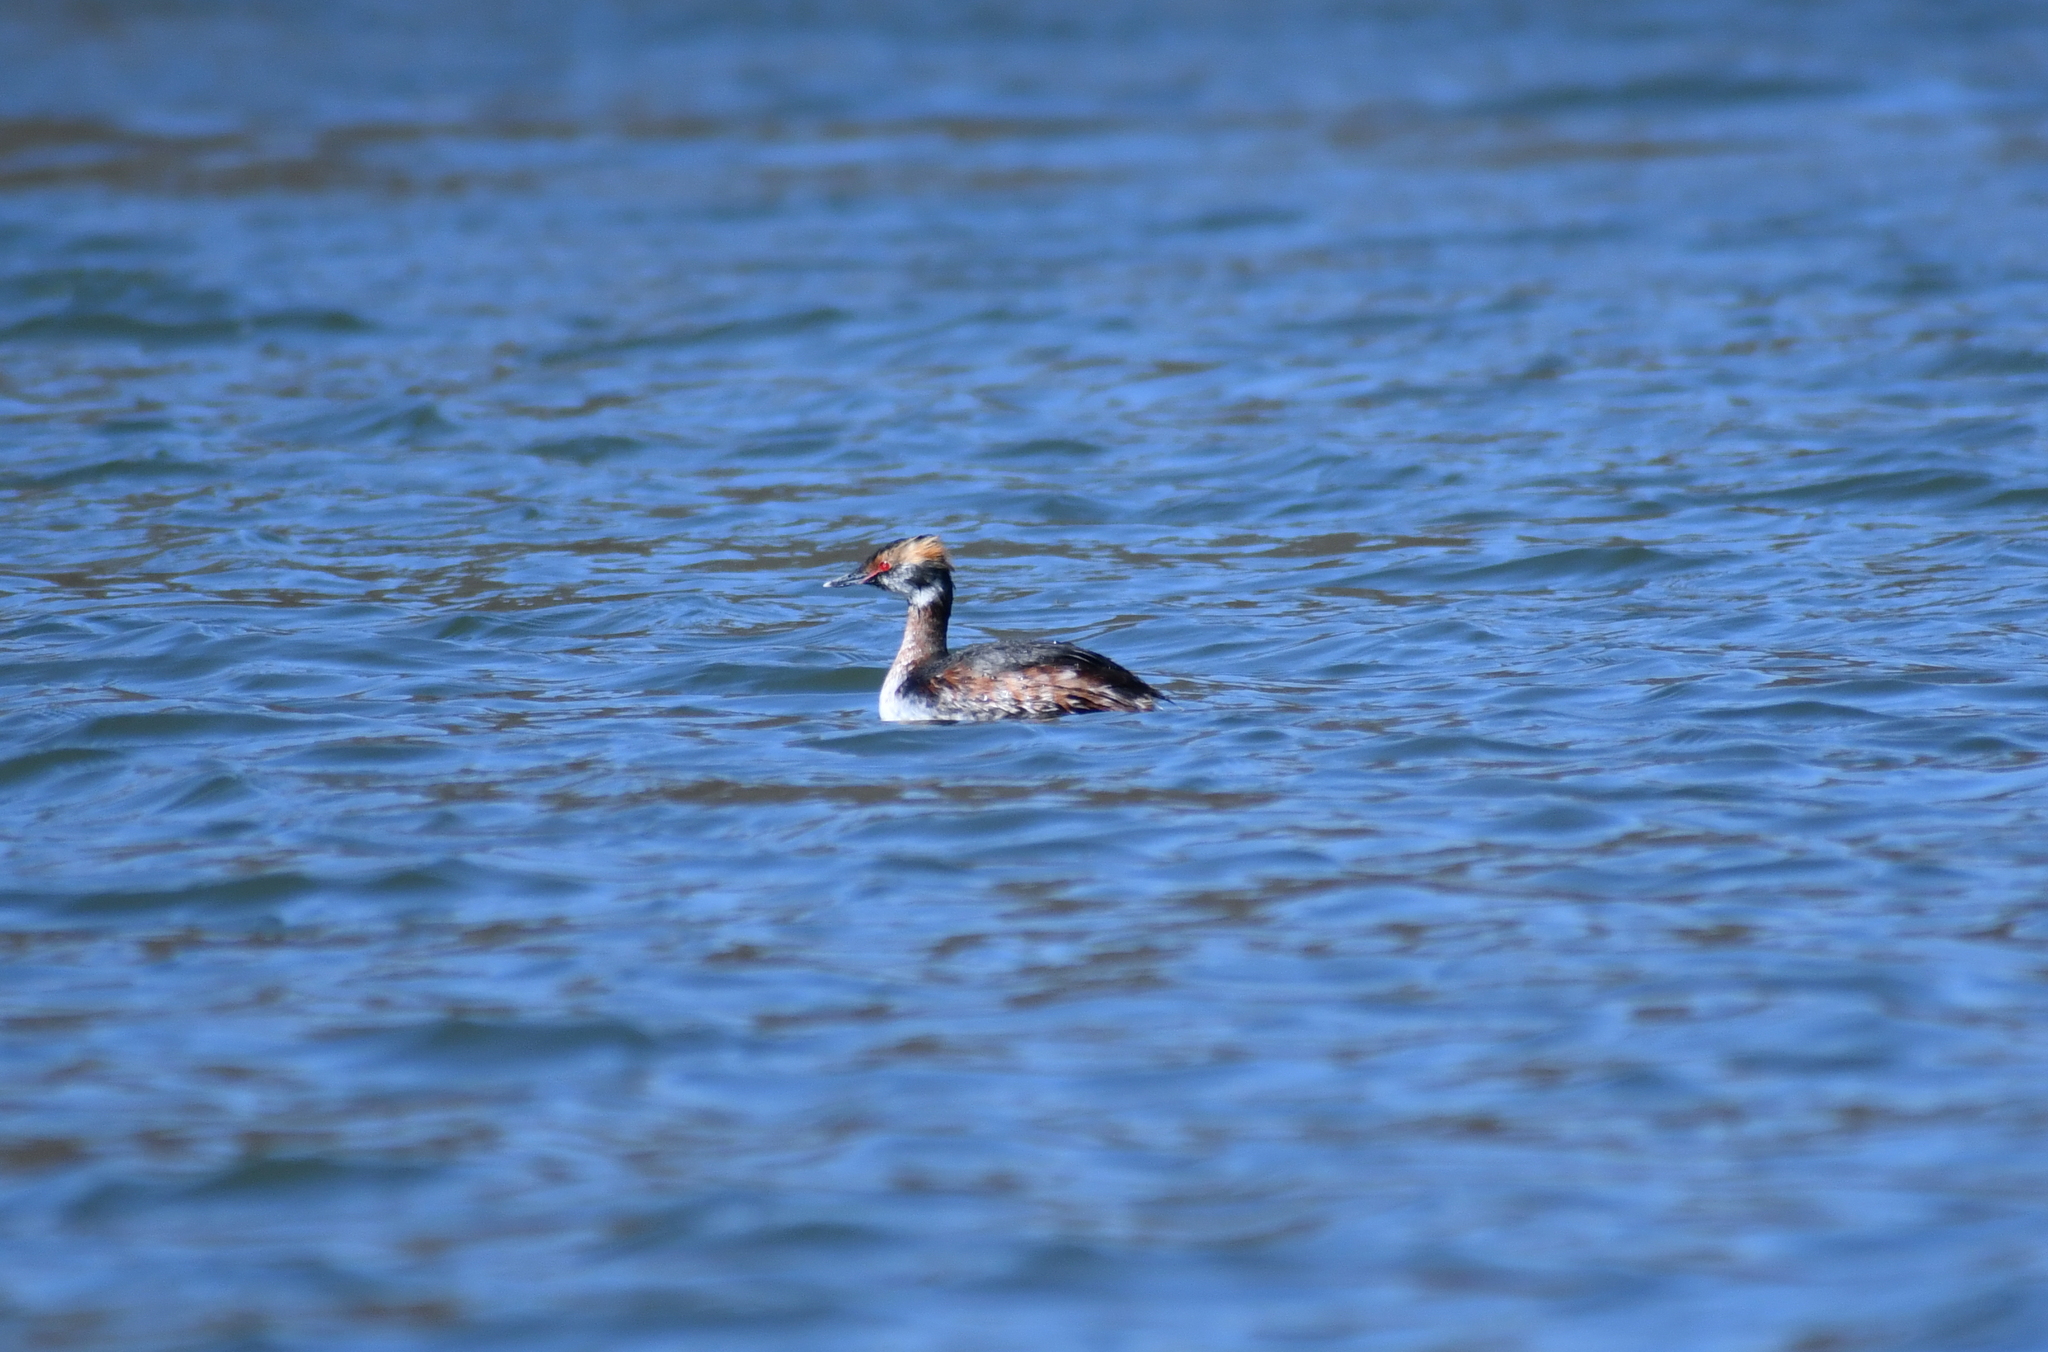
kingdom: Animalia
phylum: Chordata
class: Aves
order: Podicipediformes
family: Podicipedidae
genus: Podiceps
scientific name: Podiceps auritus
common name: Horned grebe
